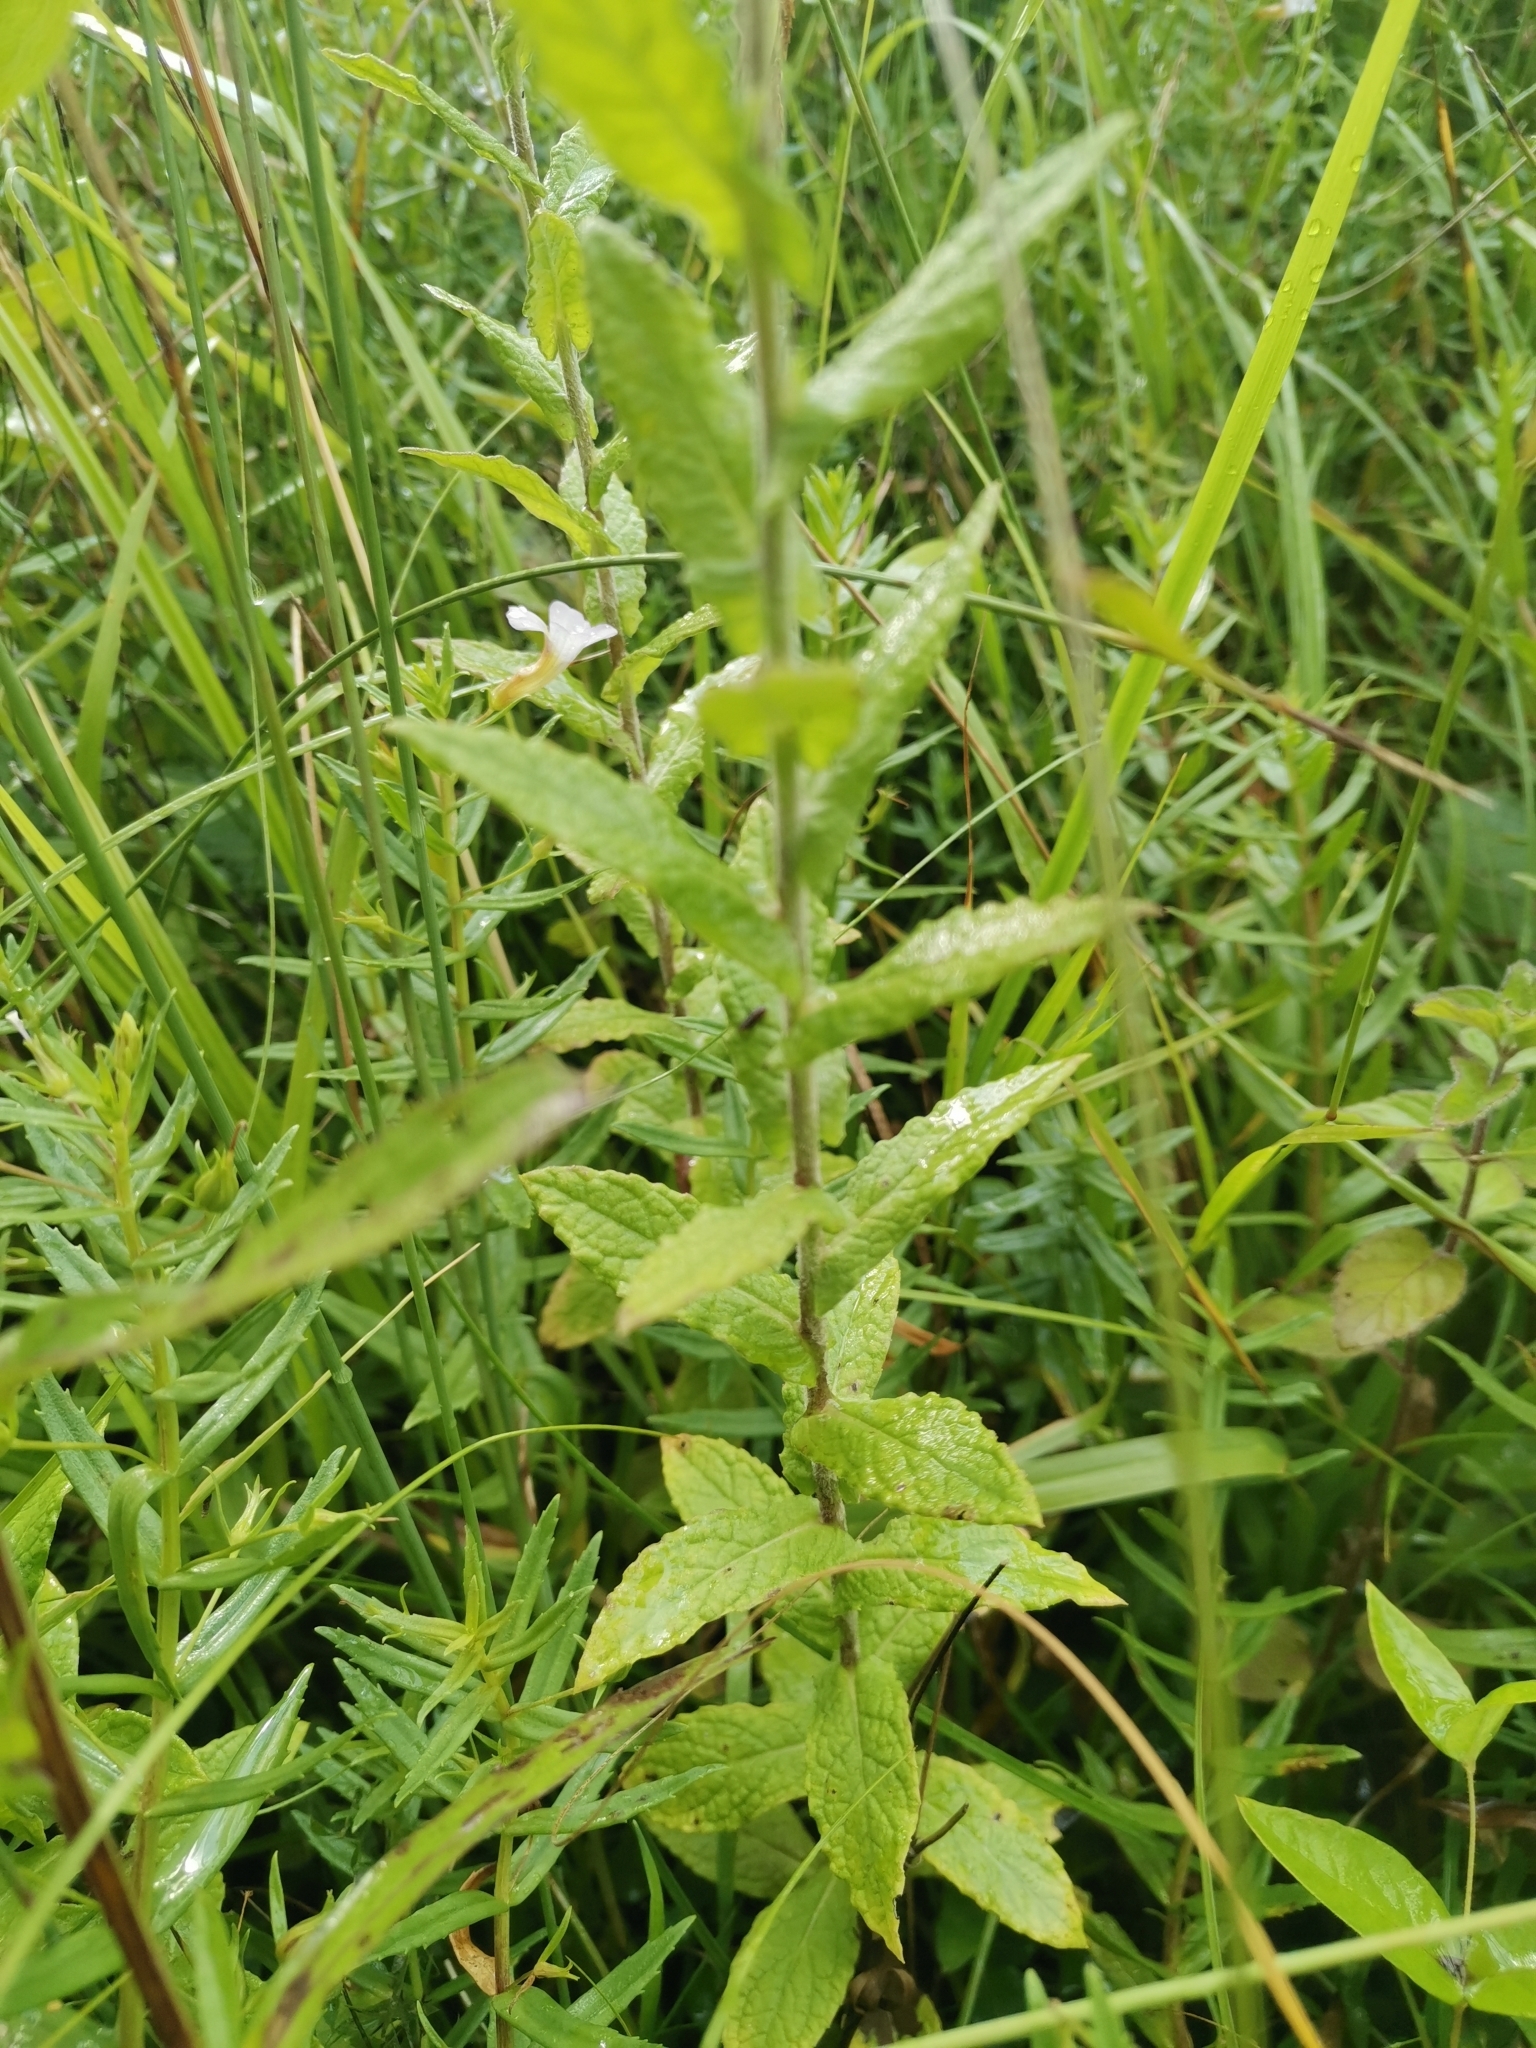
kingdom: Plantae
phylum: Tracheophyta
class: Magnoliopsida
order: Asterales
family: Asteraceae
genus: Pulicaria
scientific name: Pulicaria dysenterica
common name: Common fleabane
